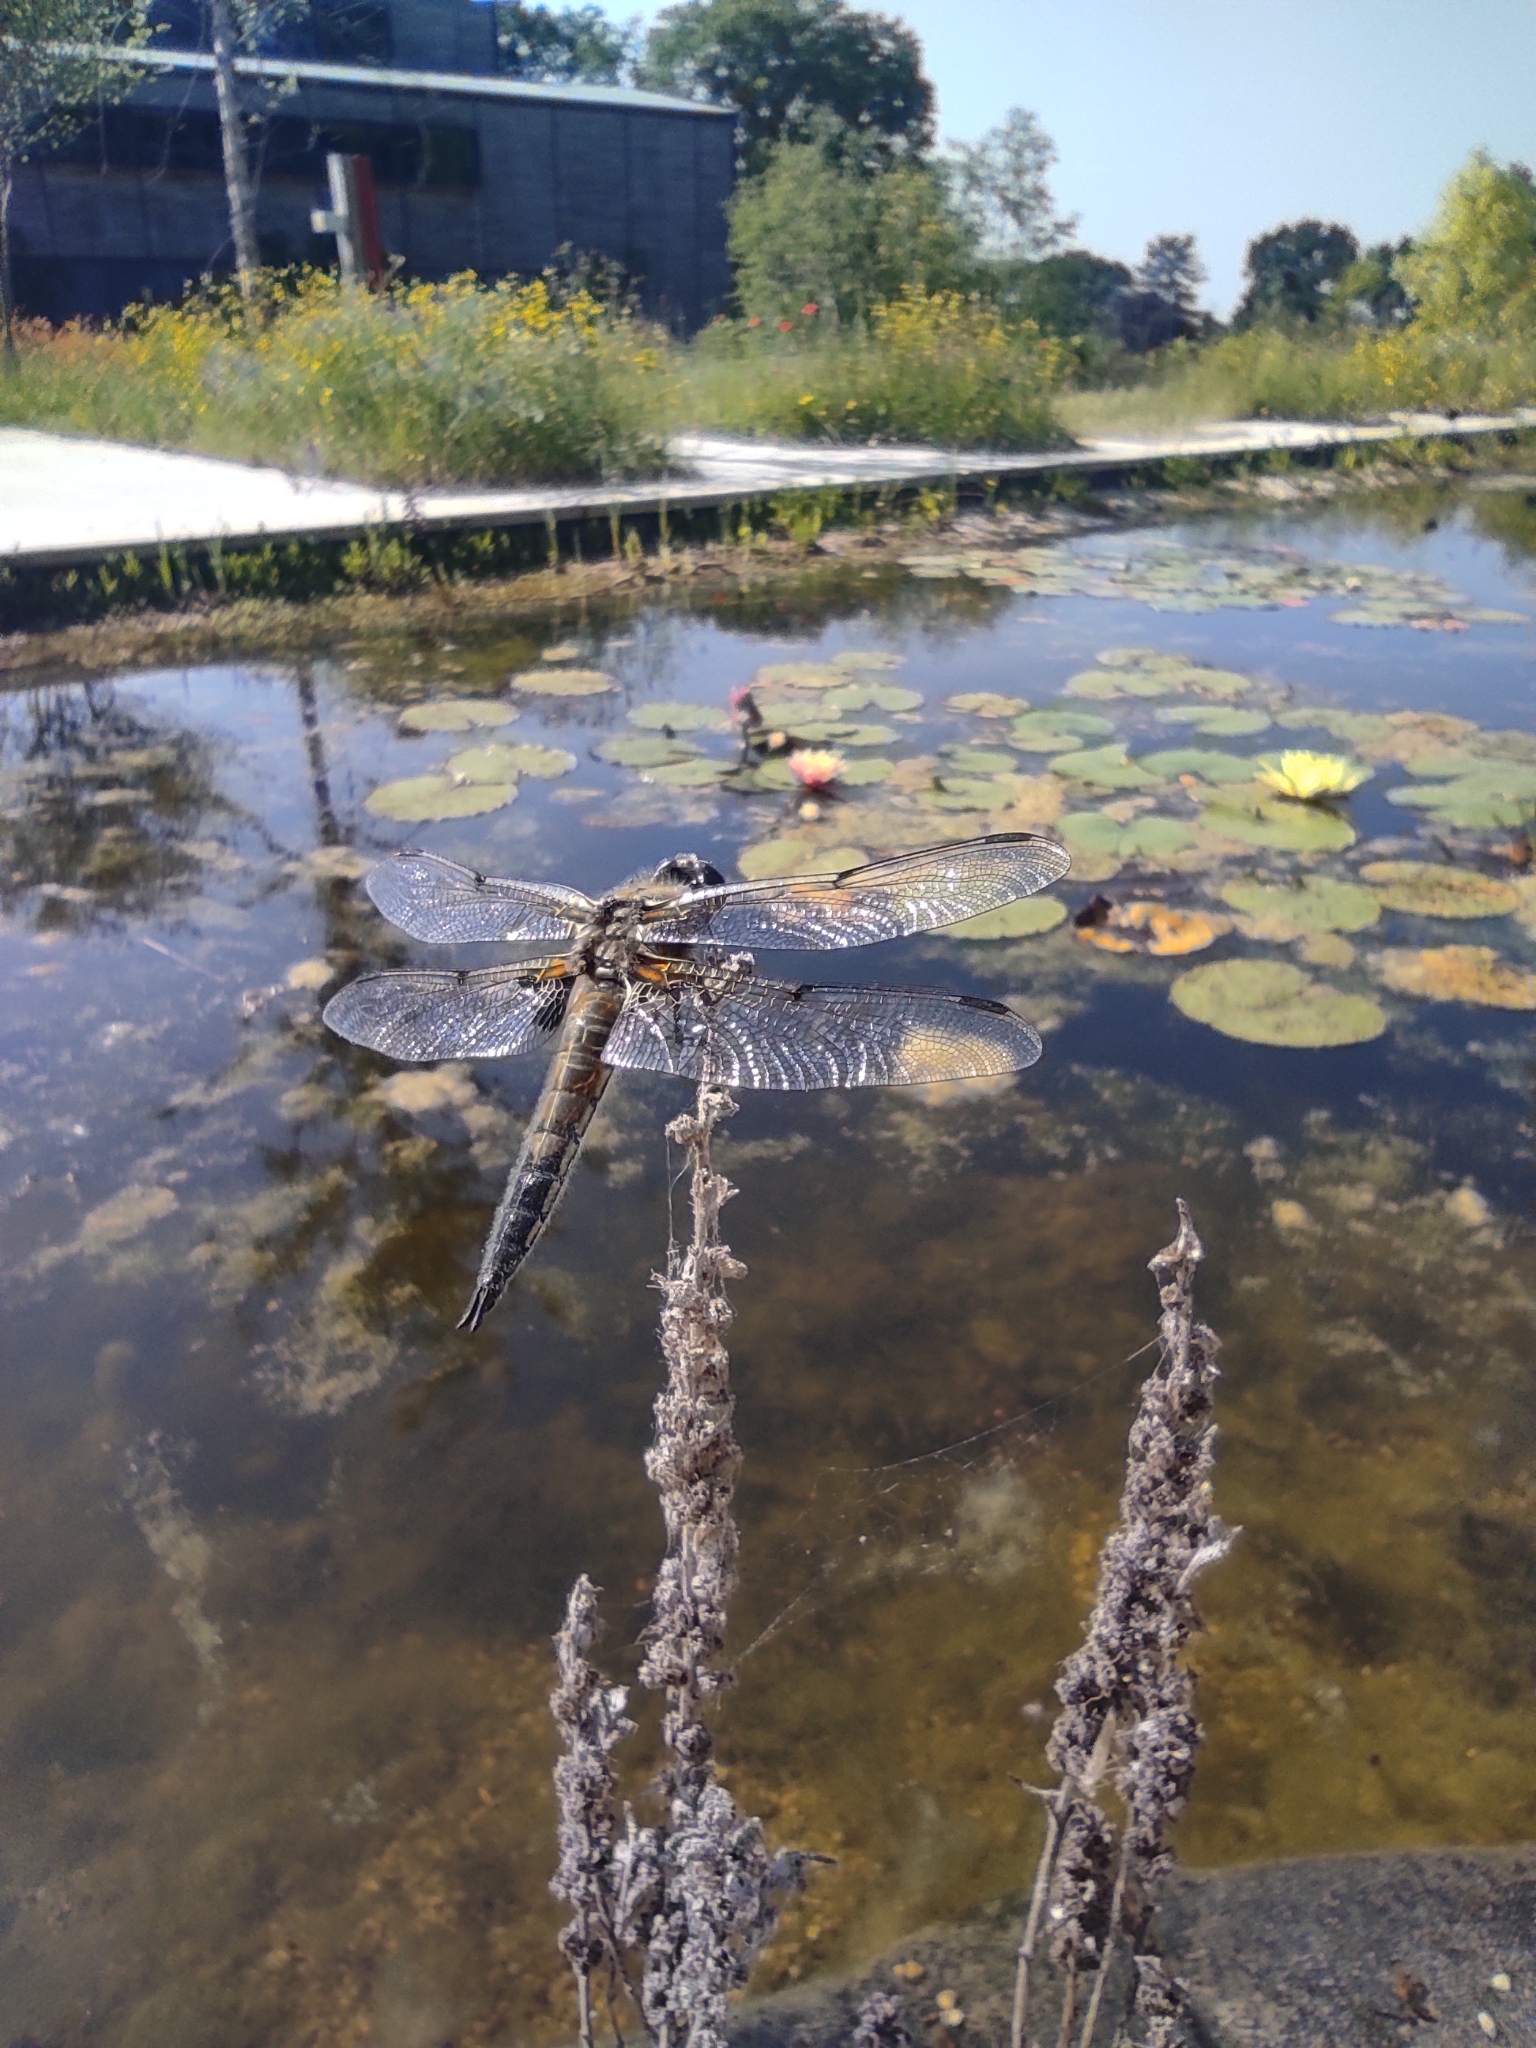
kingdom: Animalia
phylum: Arthropoda
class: Insecta
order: Odonata
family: Libellulidae
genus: Libellula
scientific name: Libellula quadrimaculata
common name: Four-spotted chaser
